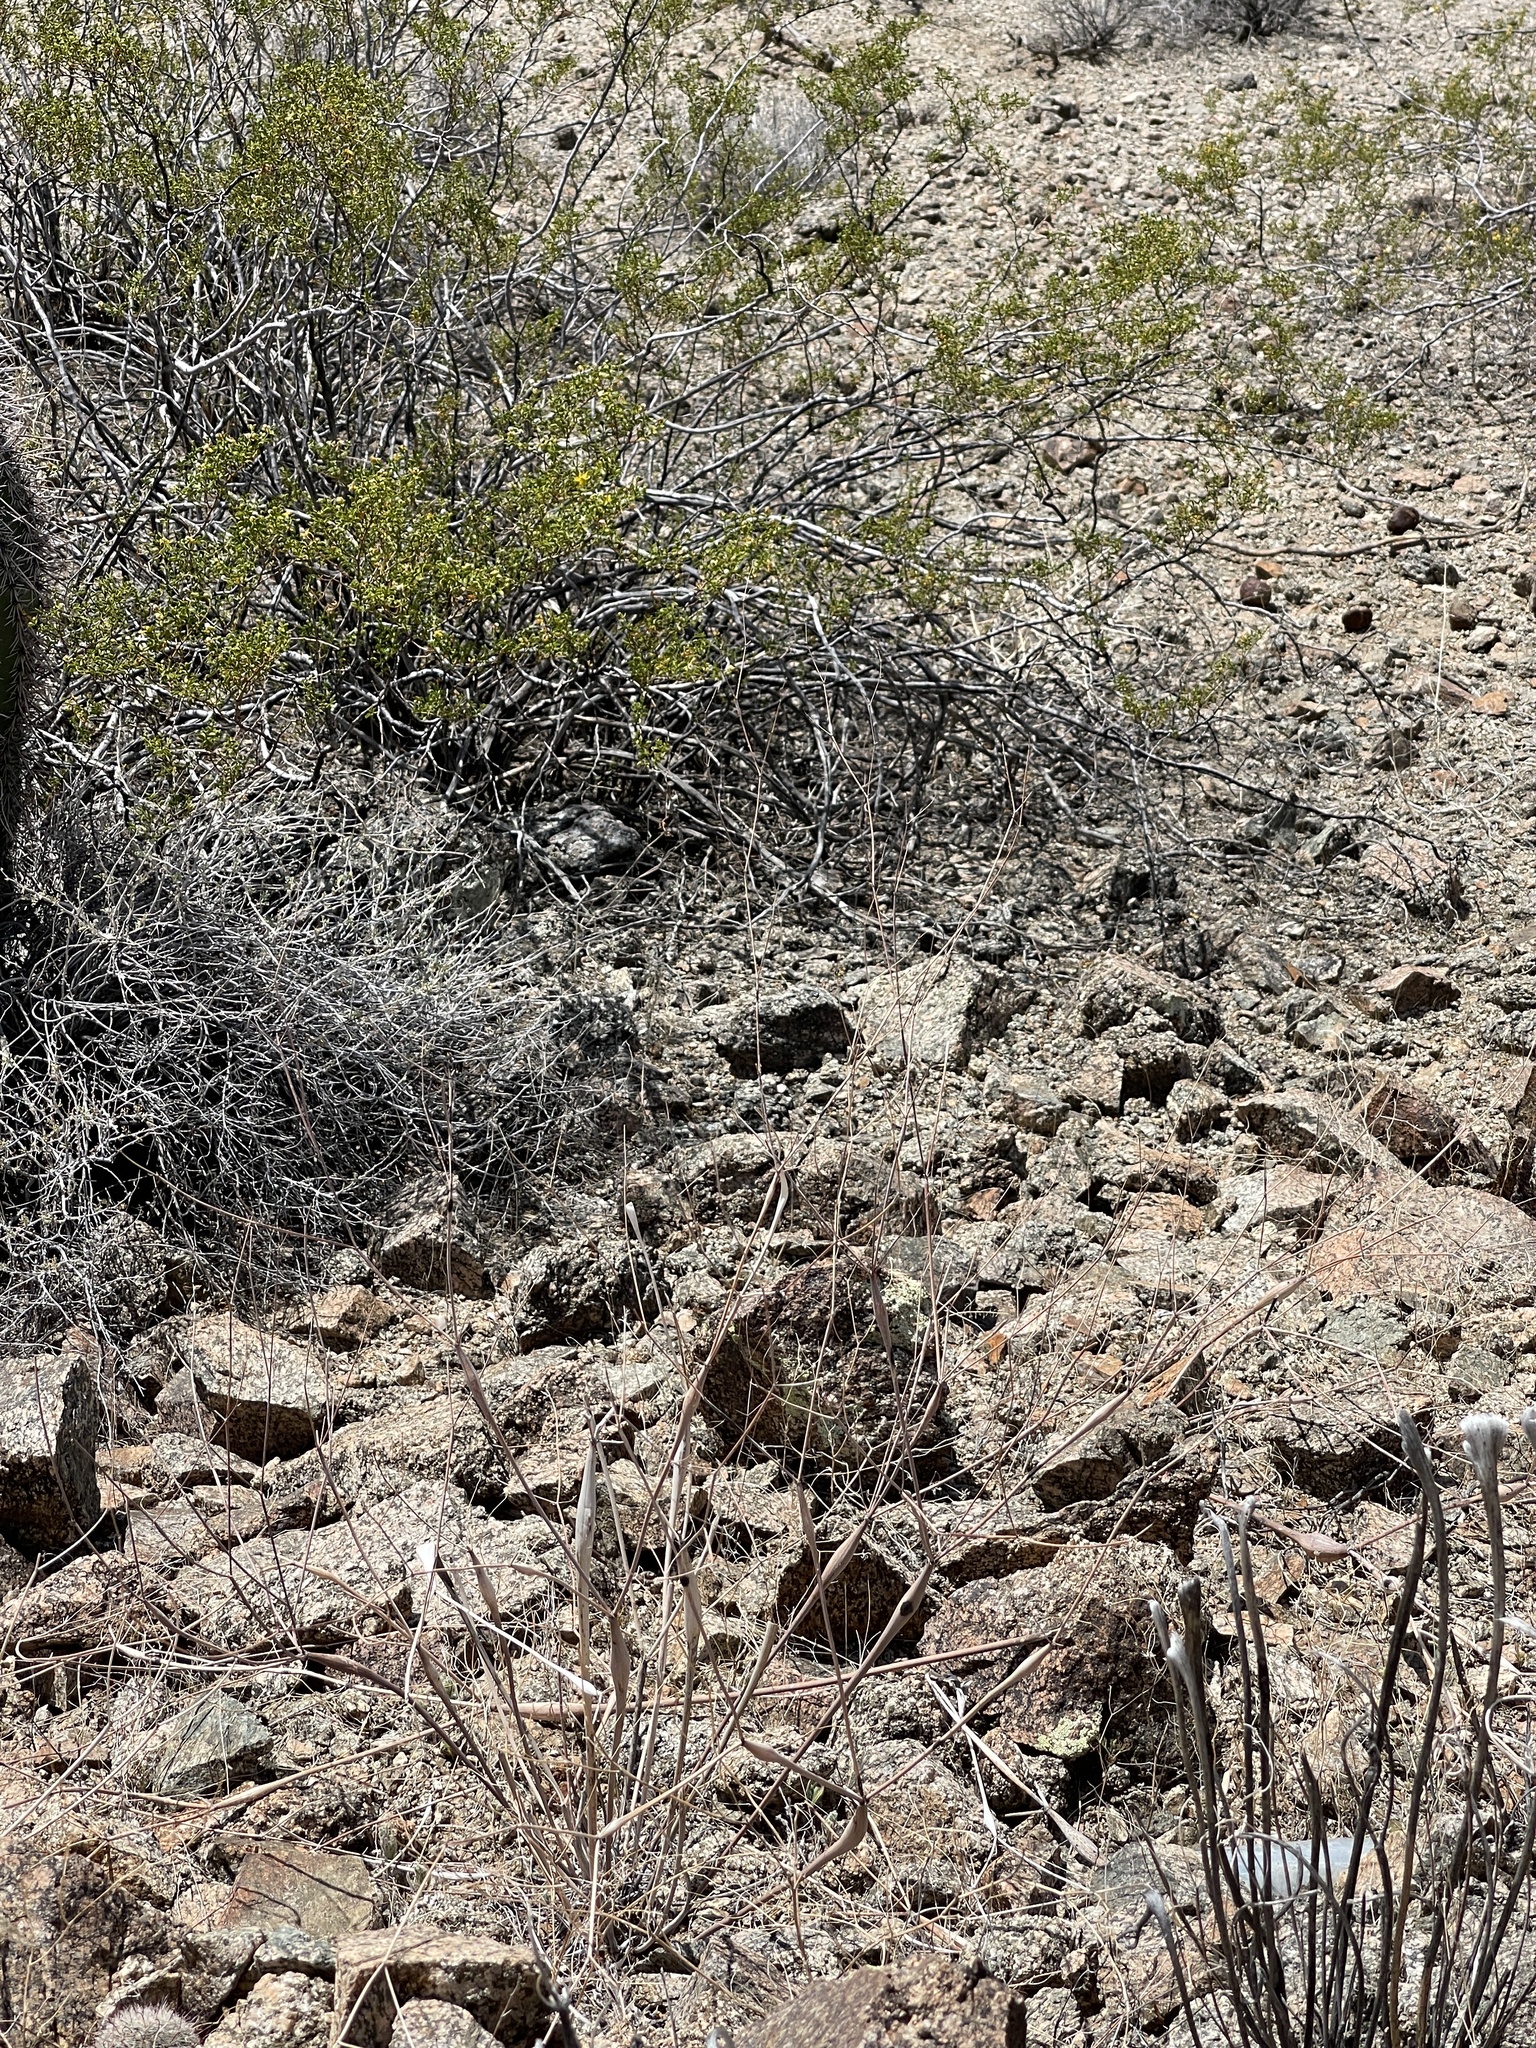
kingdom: Plantae
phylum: Tracheophyta
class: Magnoliopsida
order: Caryophyllales
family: Polygonaceae
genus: Eriogonum
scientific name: Eriogonum inflatum
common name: Desert trumpet
